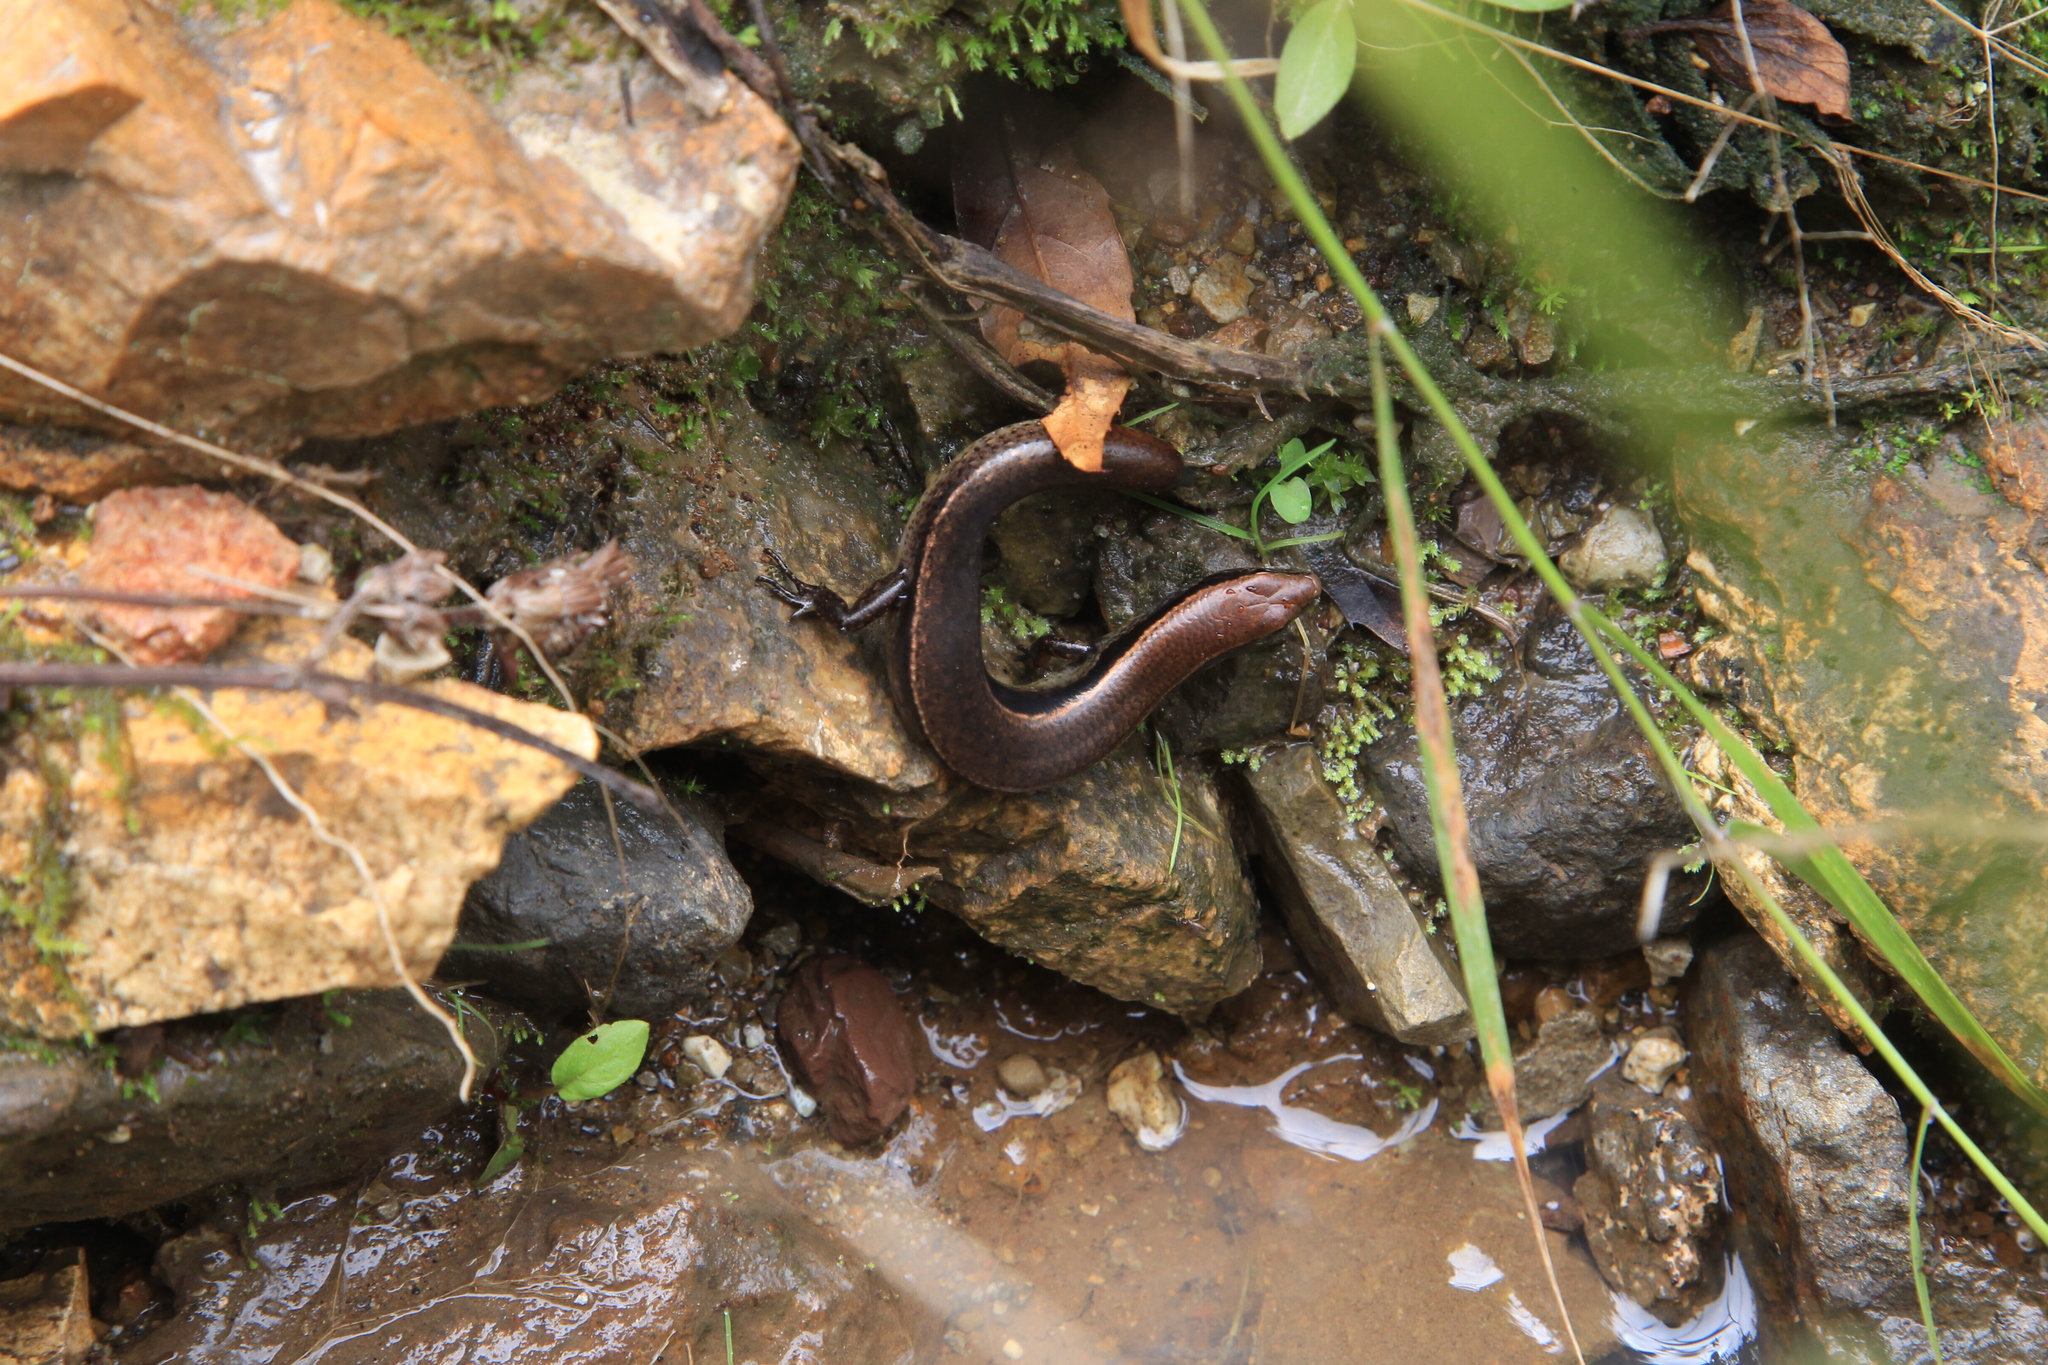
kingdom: Animalia
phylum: Chordata
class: Squamata
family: Scincidae
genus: Scincella
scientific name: Scincella gemmingeri
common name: Cope’s forest ground skink
